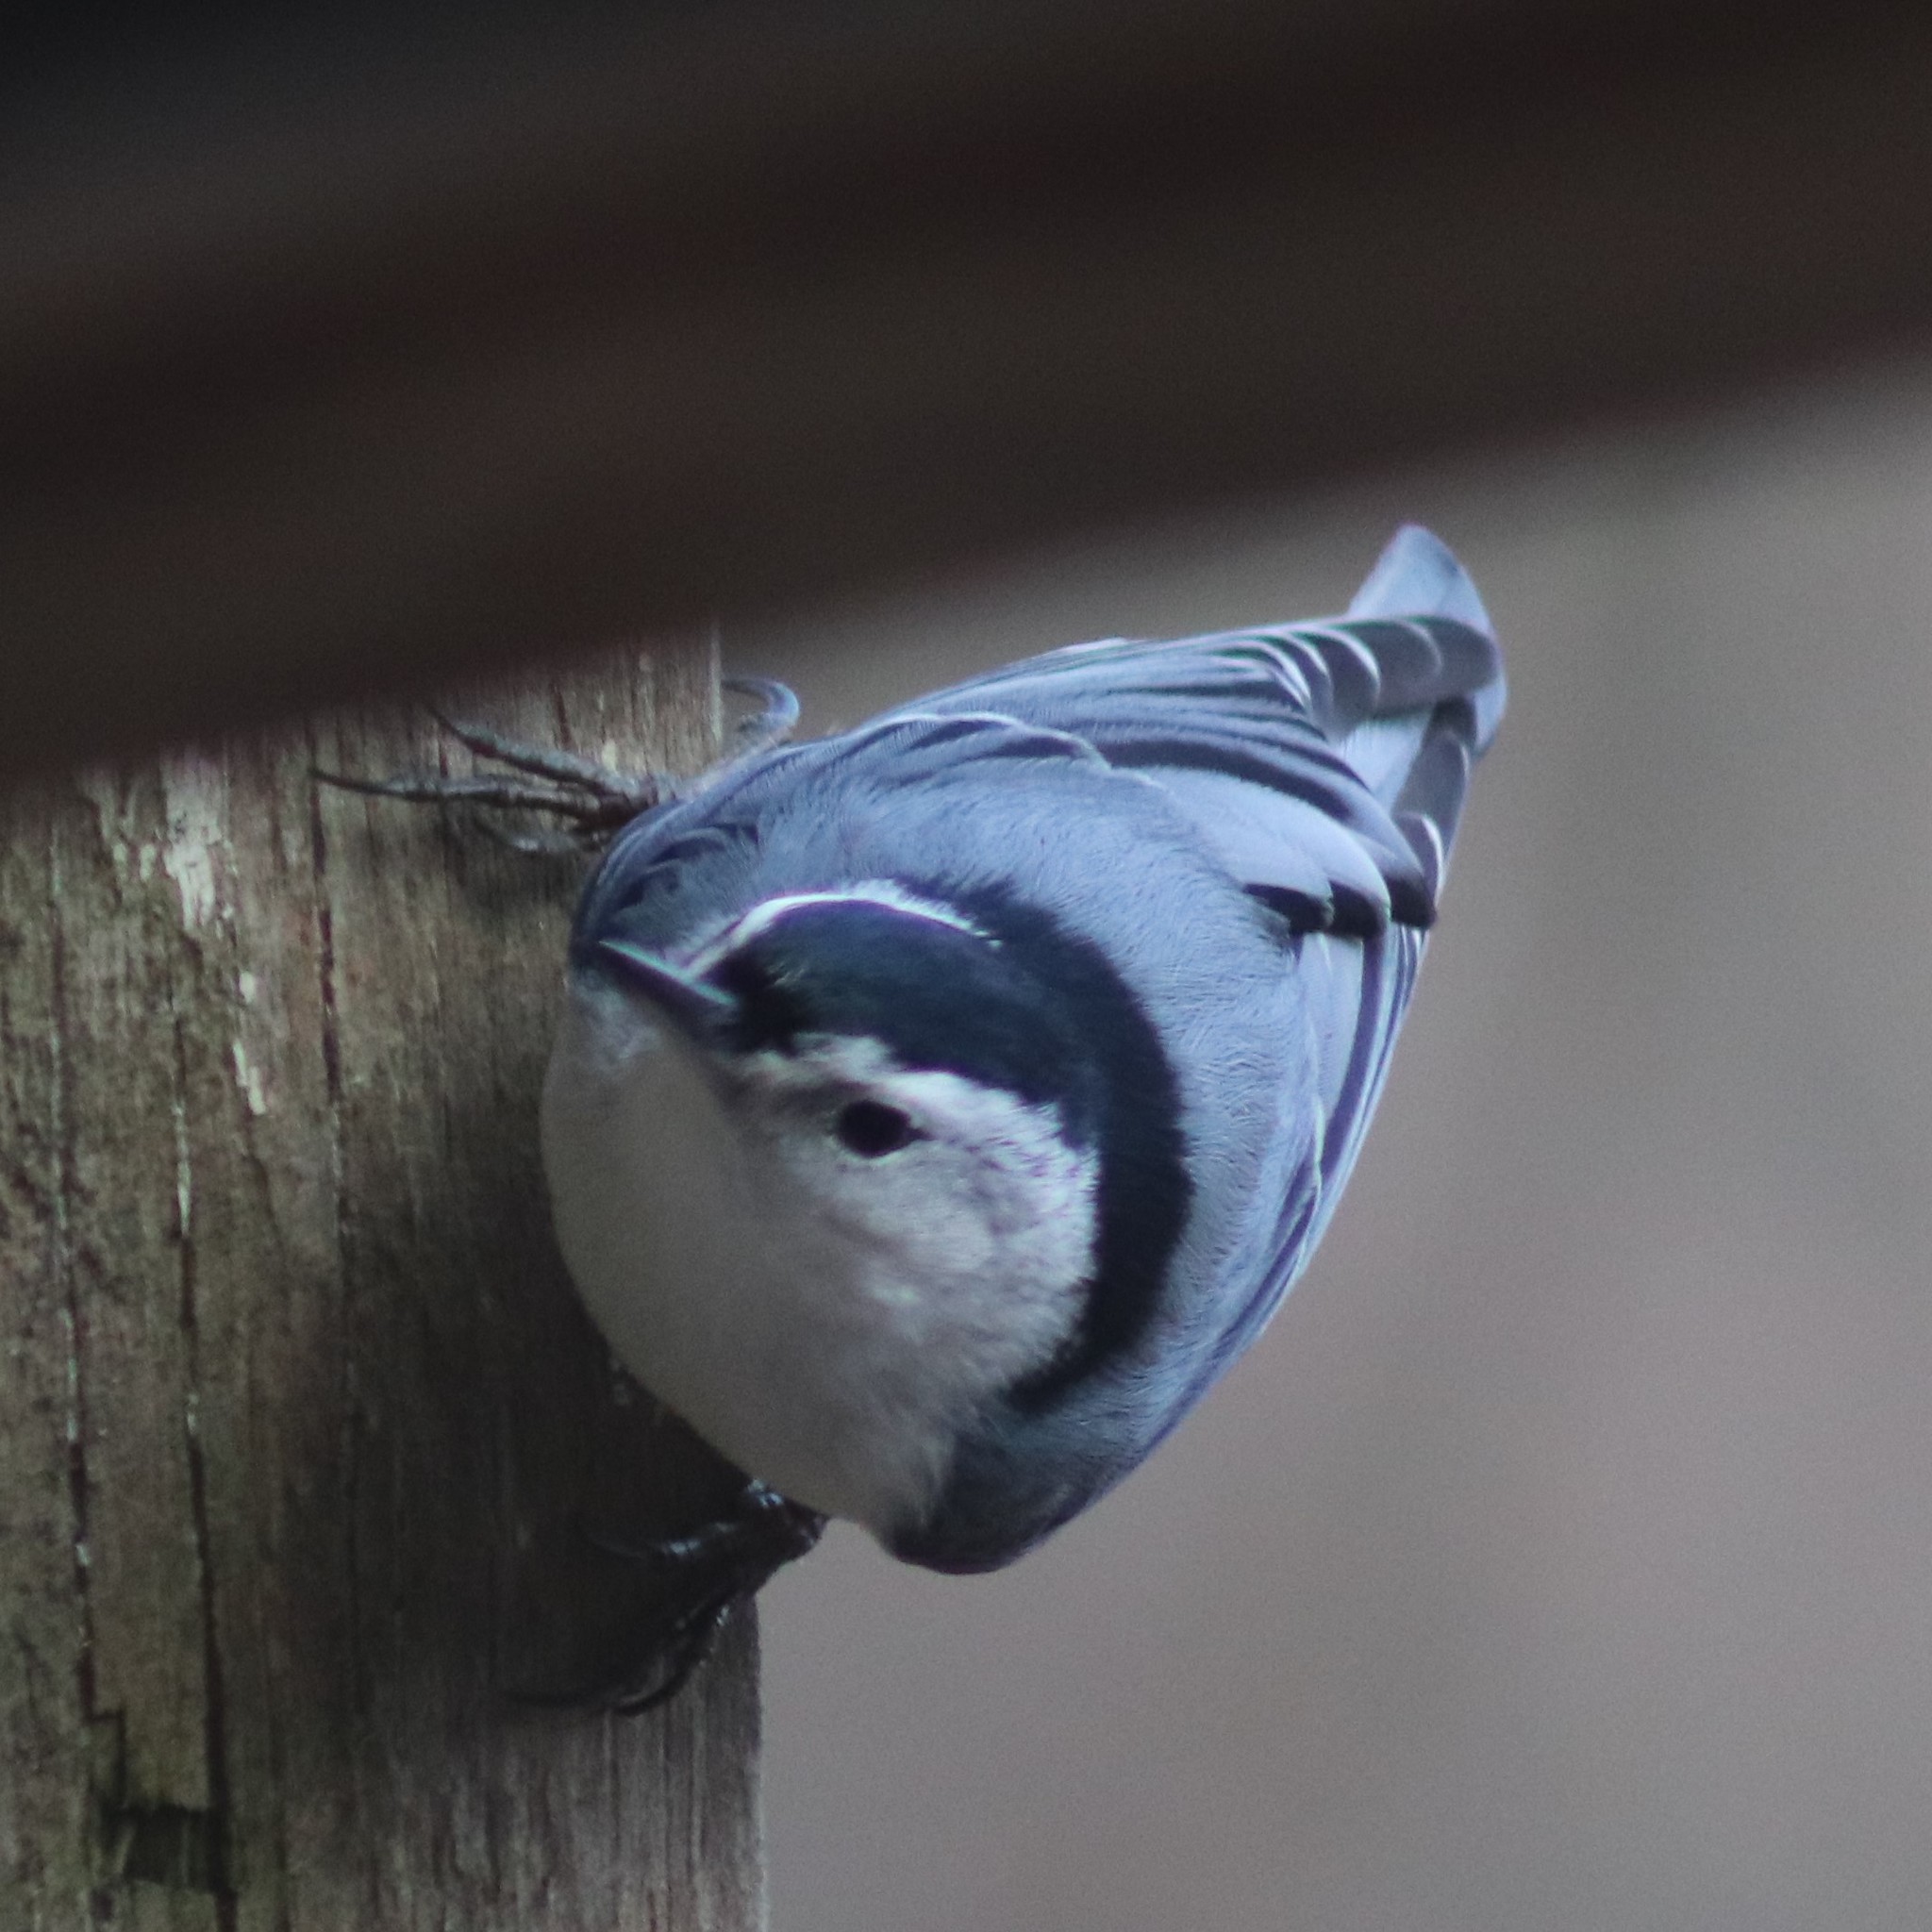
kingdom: Animalia
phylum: Chordata
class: Aves
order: Passeriformes
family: Sittidae
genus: Sitta
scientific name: Sitta carolinensis
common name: White-breasted nuthatch
